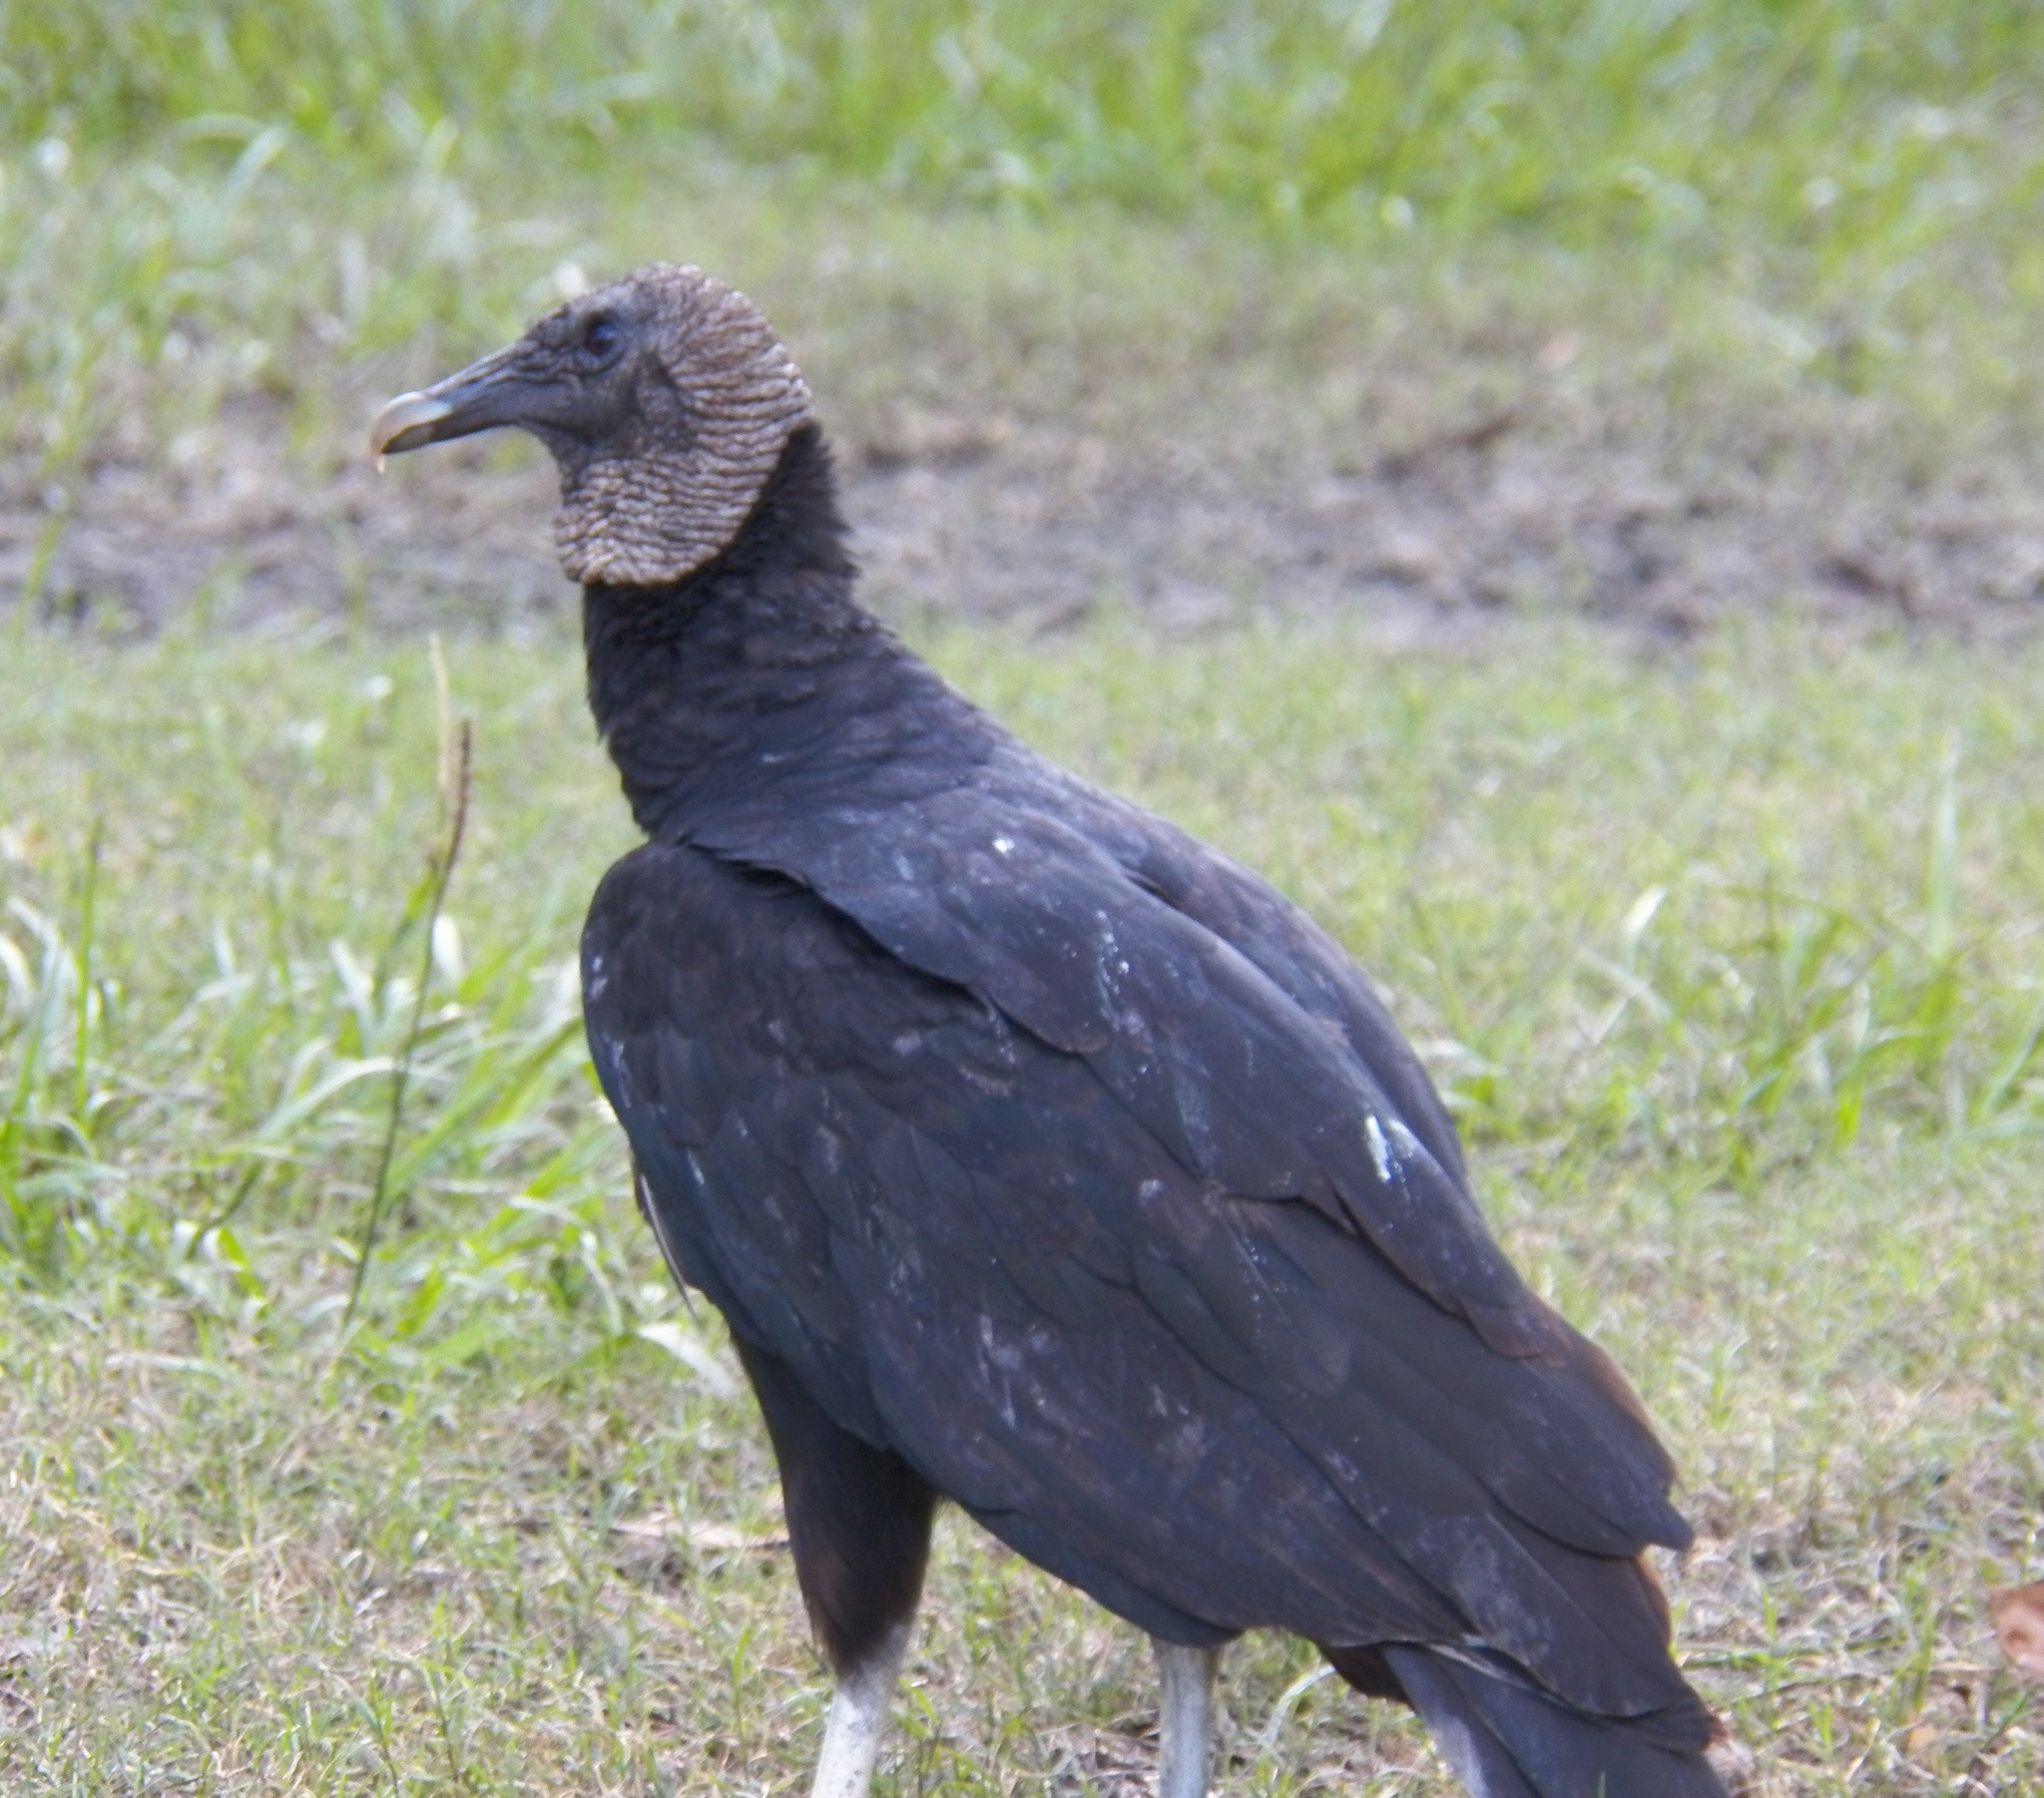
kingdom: Animalia
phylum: Chordata
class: Aves
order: Accipitriformes
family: Cathartidae
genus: Coragyps
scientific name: Coragyps atratus
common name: Black vulture
